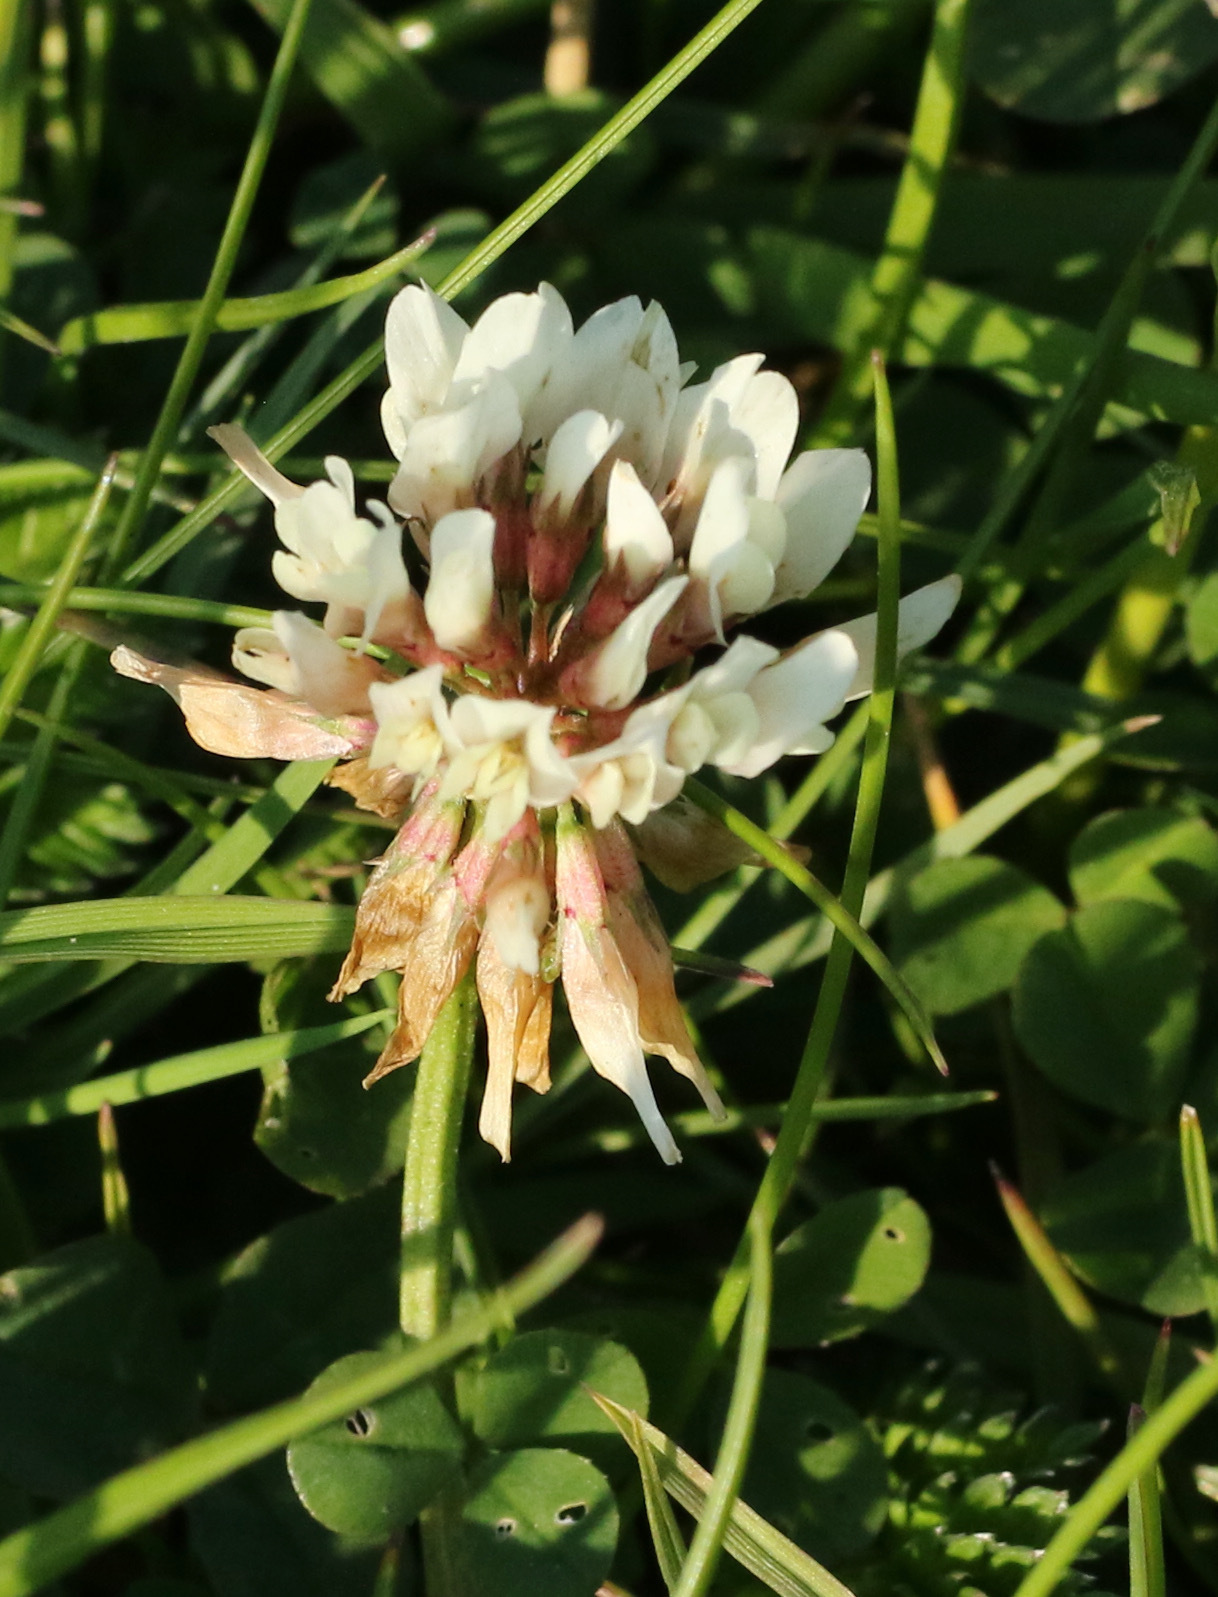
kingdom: Plantae
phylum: Tracheophyta
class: Magnoliopsida
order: Fabales
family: Fabaceae
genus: Trifolium
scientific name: Trifolium repens
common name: White clover
